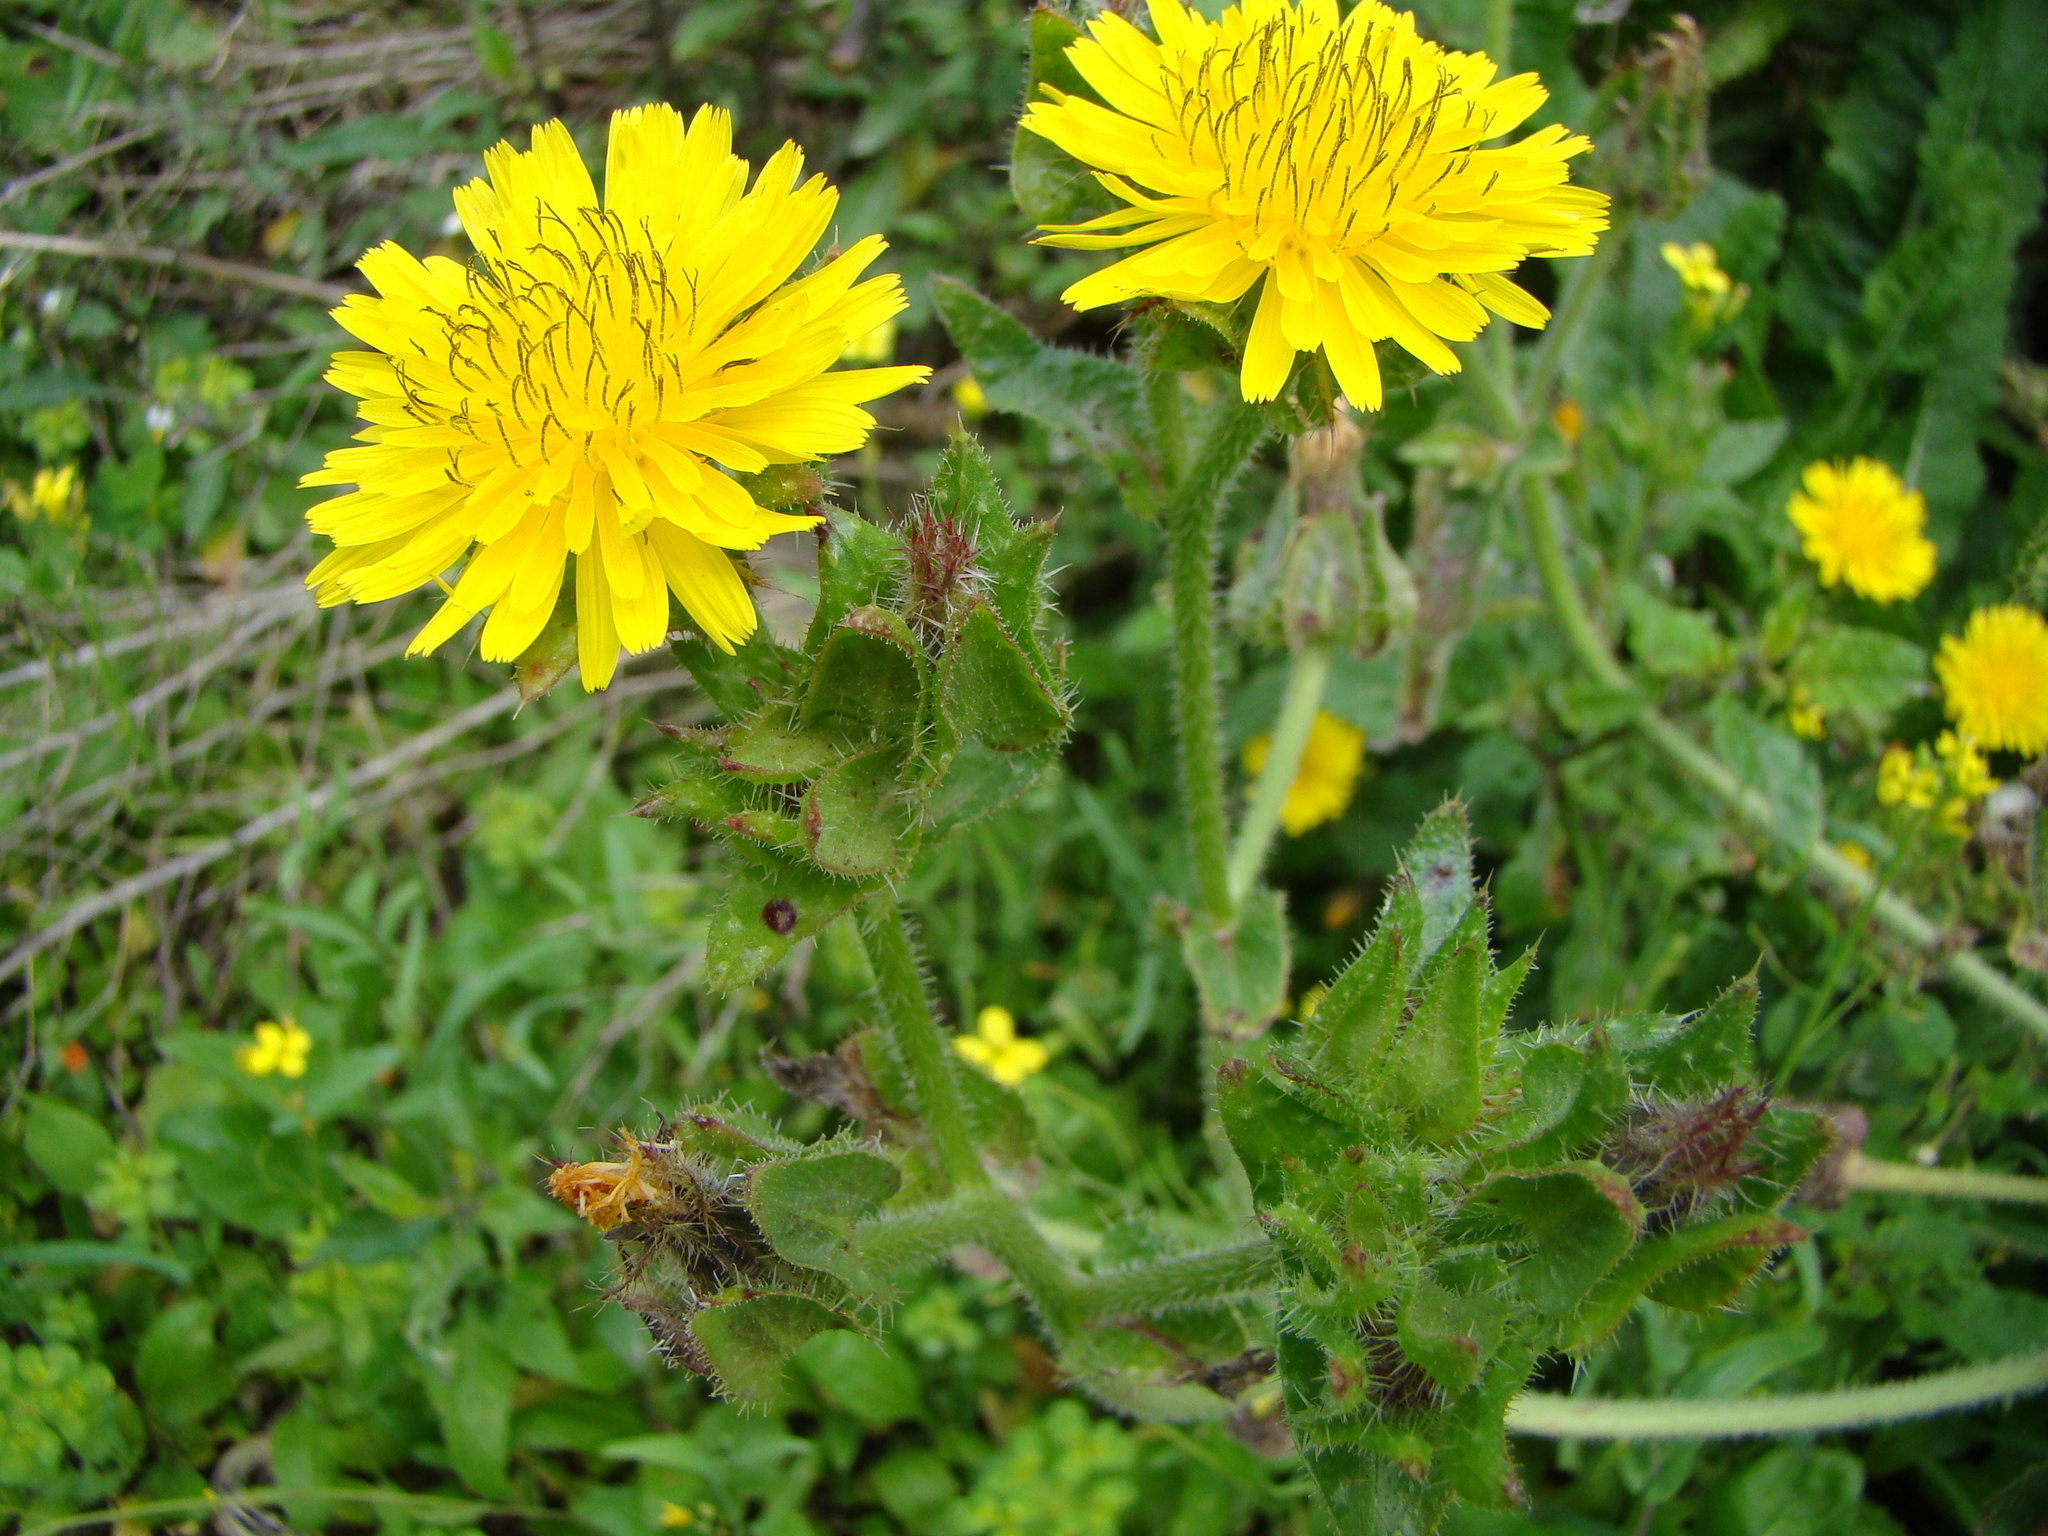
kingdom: Plantae
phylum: Tracheophyta
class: Magnoliopsida
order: Asterales
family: Asteraceae
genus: Helminthotheca
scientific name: Helminthotheca echioides
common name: Ox-tongue
